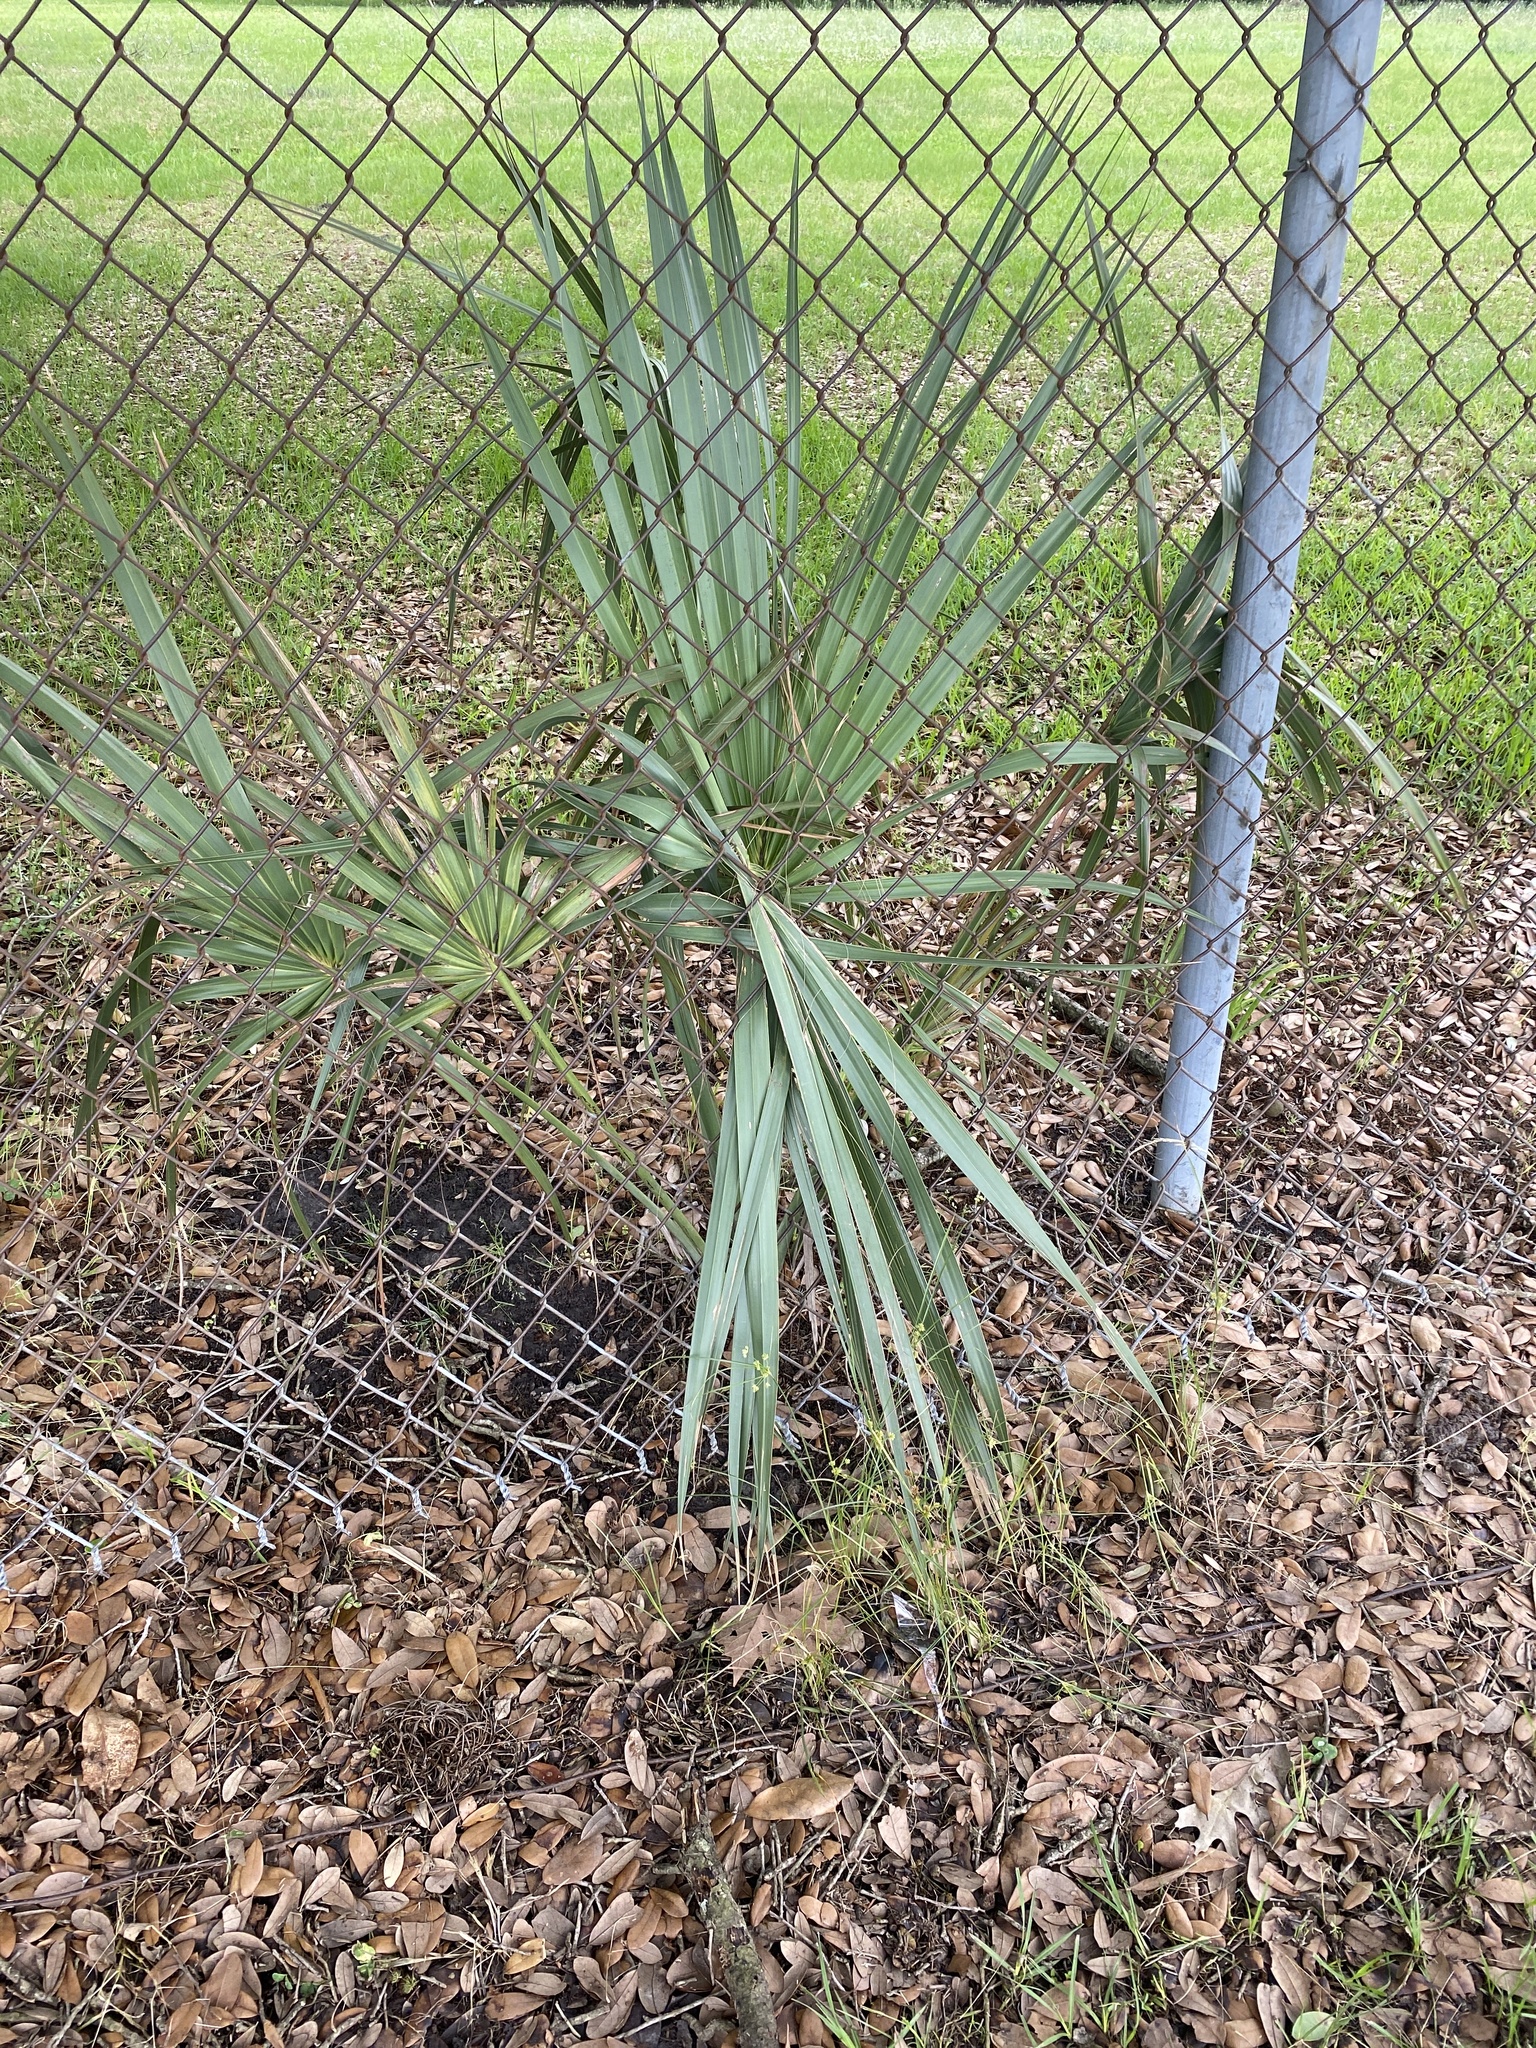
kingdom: Plantae
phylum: Tracheophyta
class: Liliopsida
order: Arecales
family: Arecaceae
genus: Sabal
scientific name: Sabal minor
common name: Dwarf palmetto
